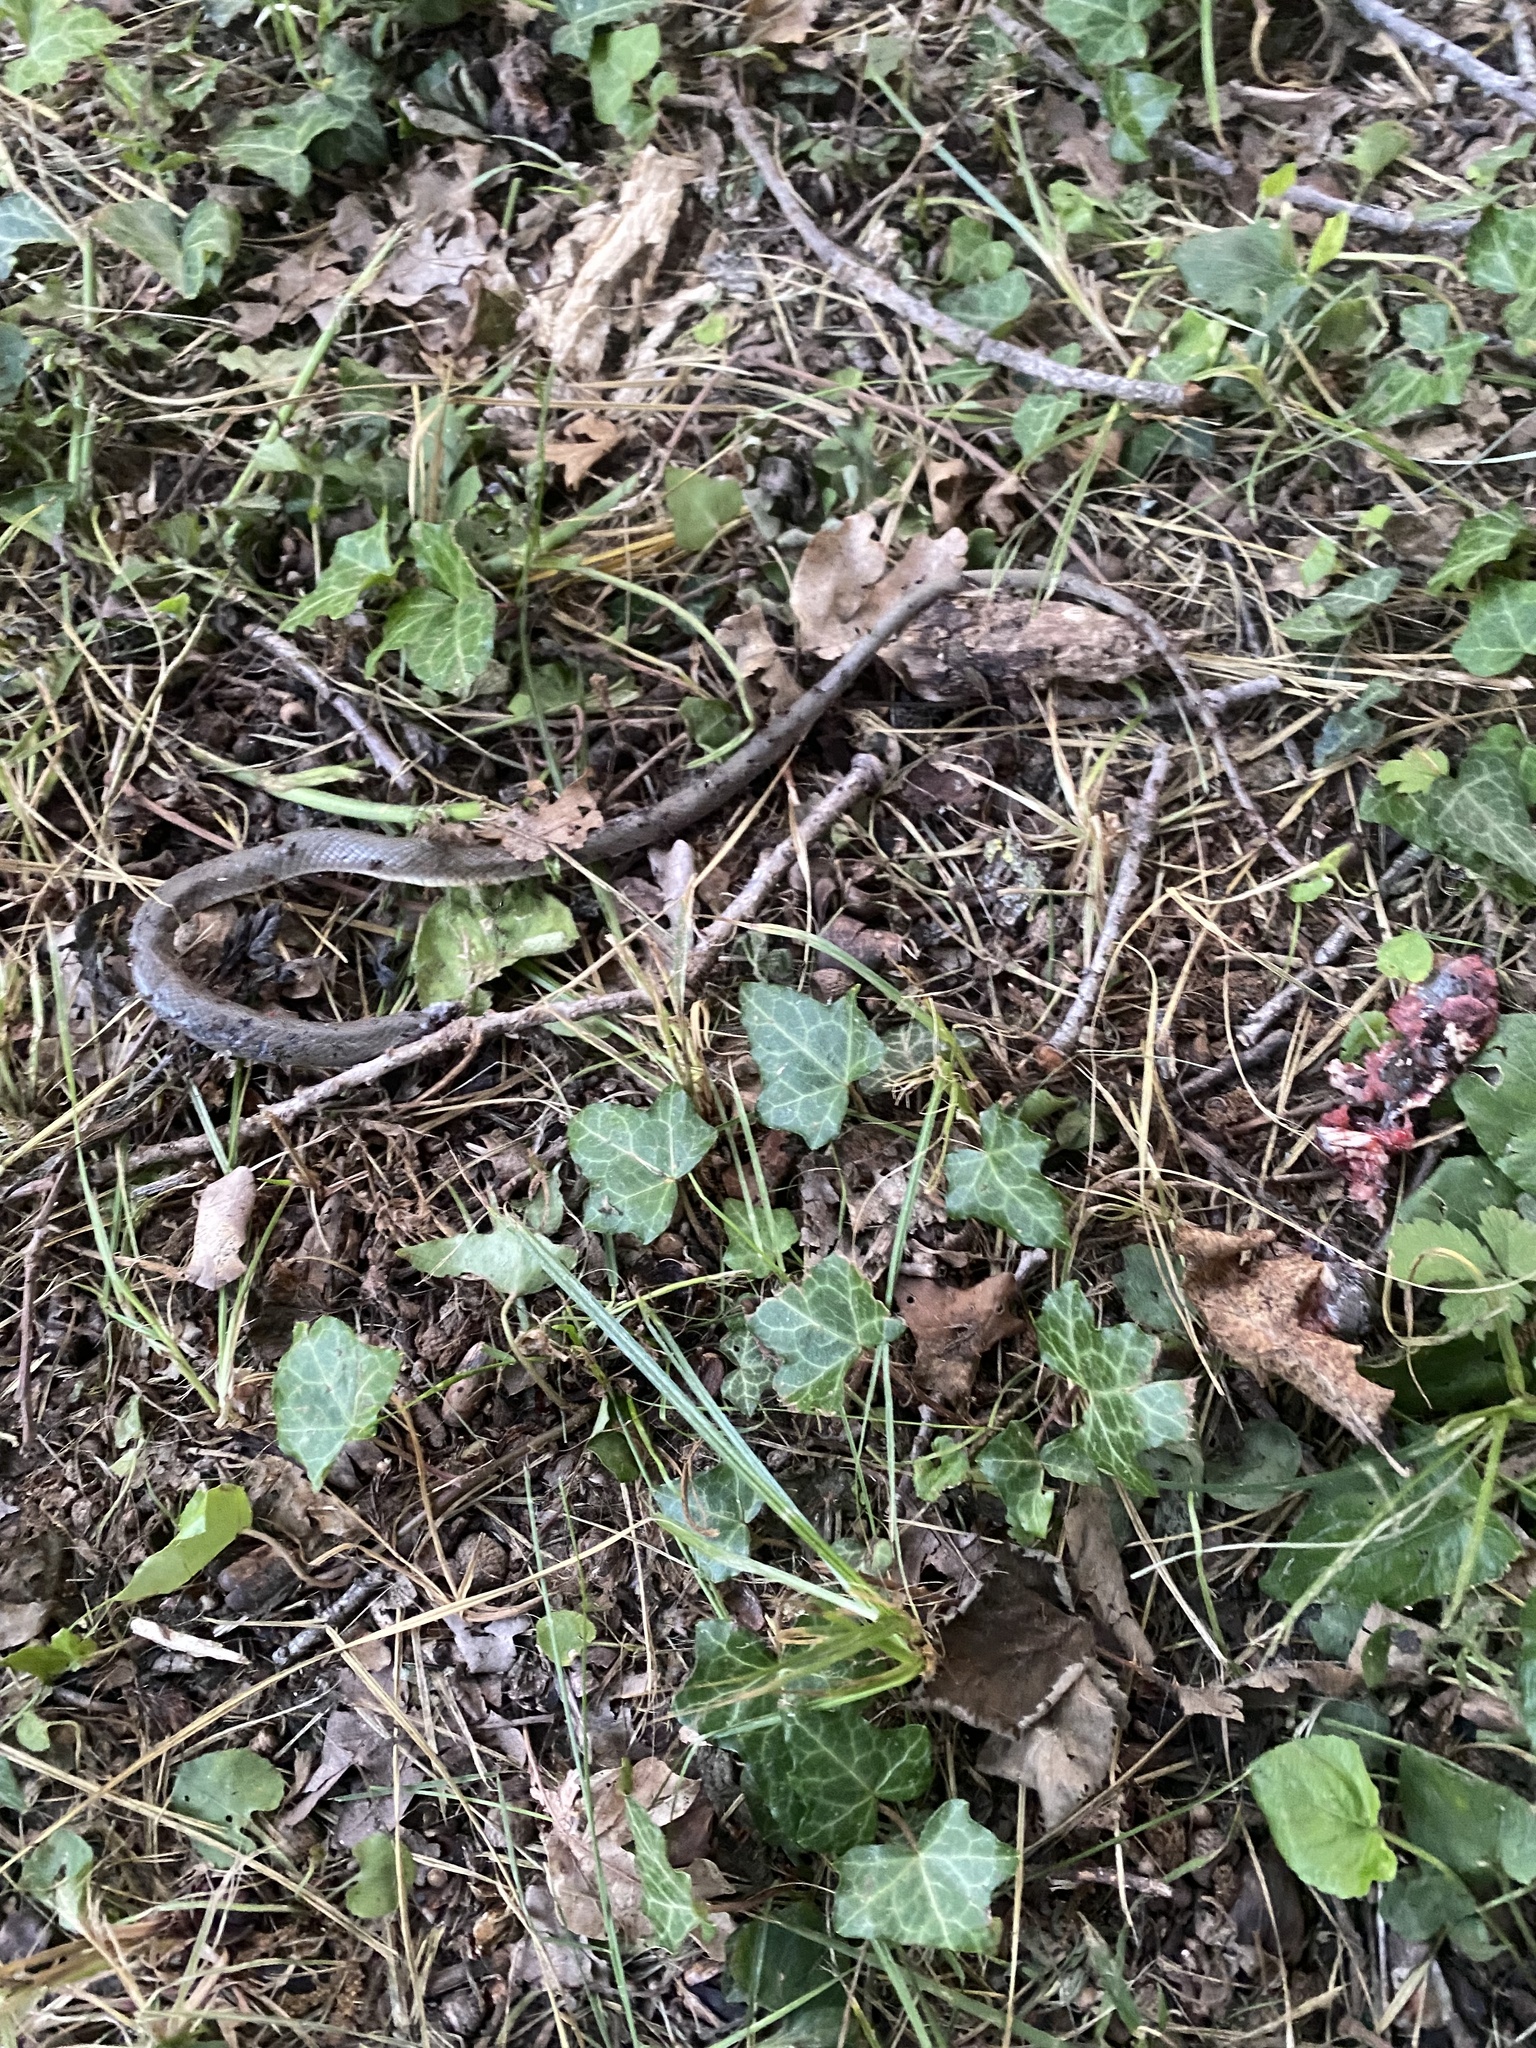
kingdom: Animalia
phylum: Chordata
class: Squamata
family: Colubridae
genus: Platyceps
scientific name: Platyceps najadum
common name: Dahl's whip snake
